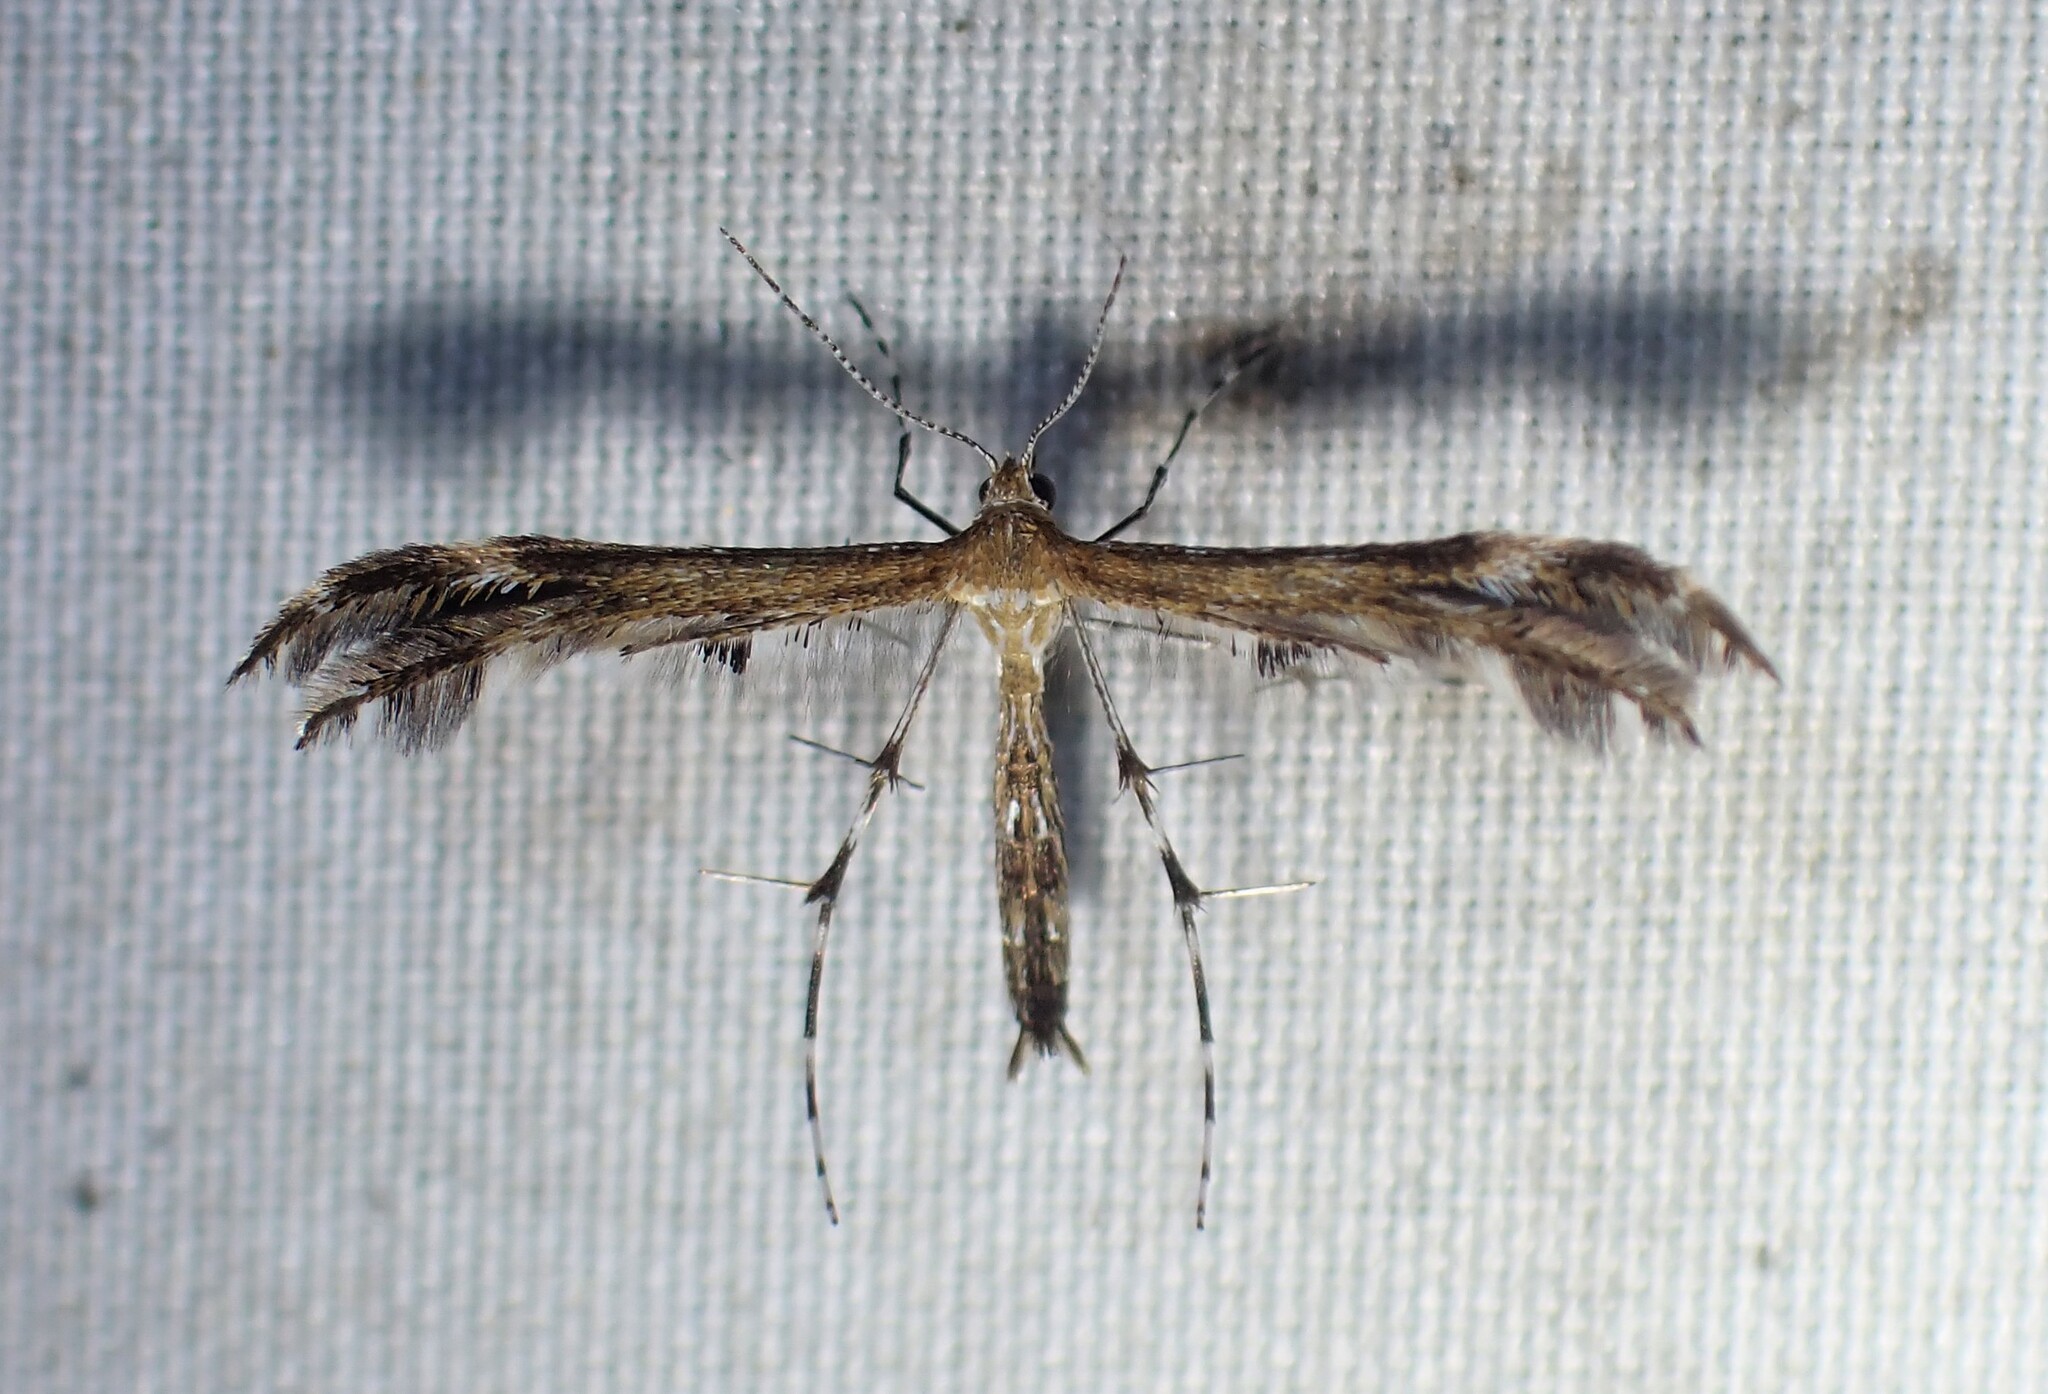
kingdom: Animalia
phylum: Arthropoda
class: Insecta
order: Lepidoptera
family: Pterophoridae
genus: Dejongia
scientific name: Dejongia lobidactylus
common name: Lobed plume moth
